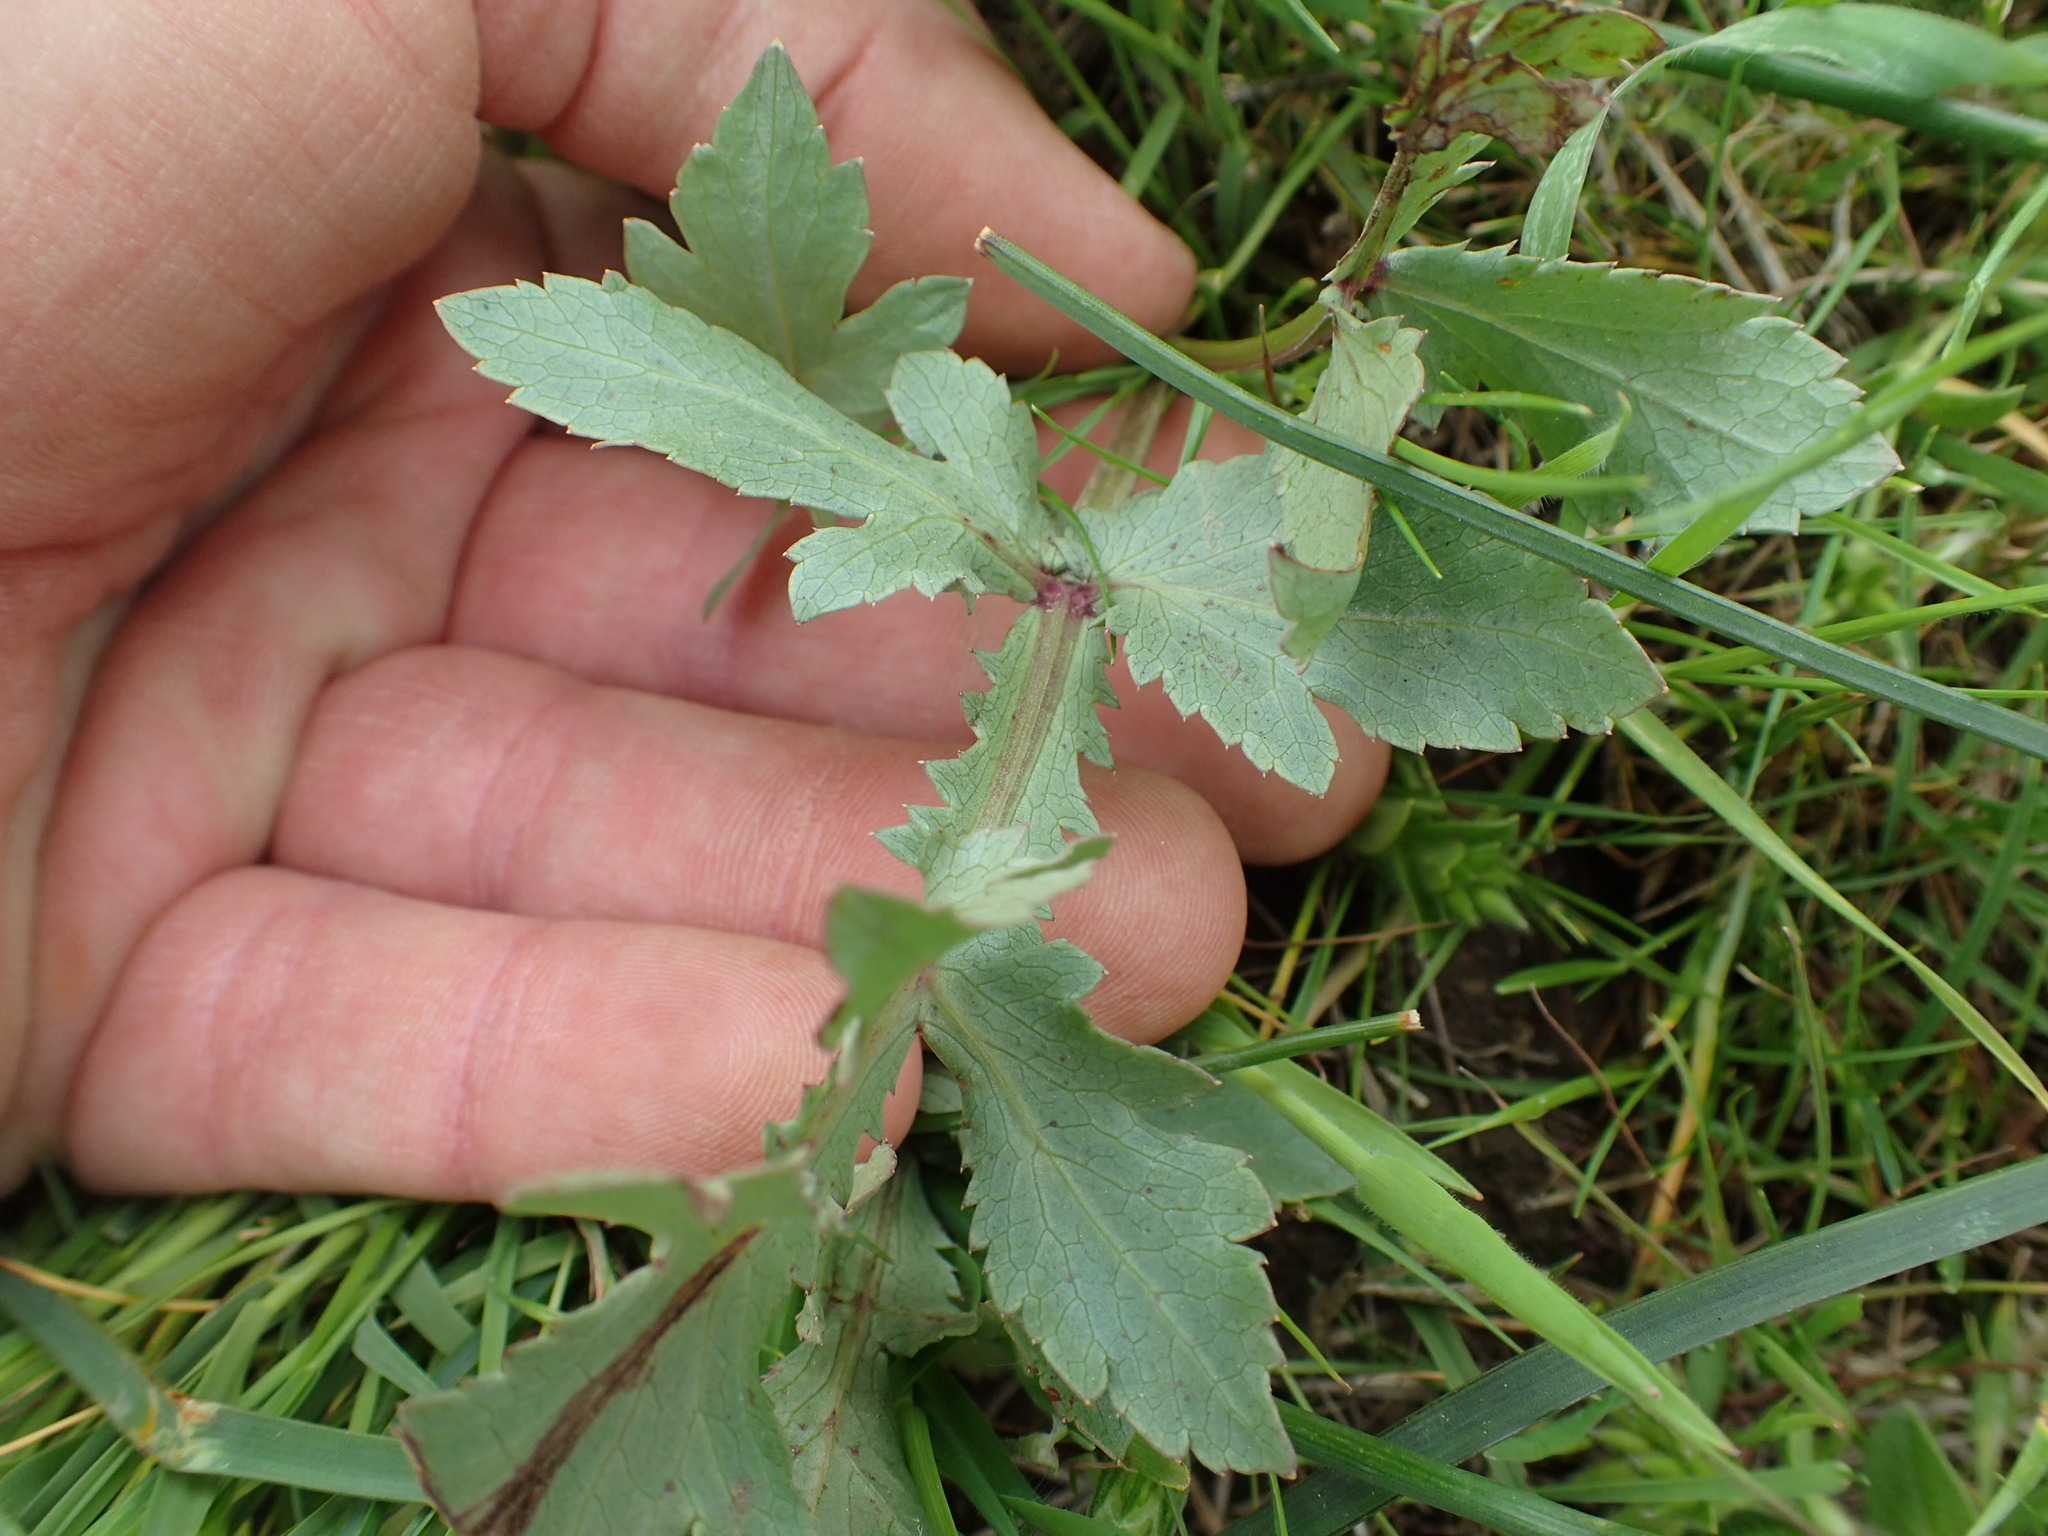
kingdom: Plantae
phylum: Tracheophyta
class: Magnoliopsida
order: Apiales
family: Apiaceae
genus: Sanicula
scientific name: Sanicula bipinnatifida
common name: Shoe-buttons
